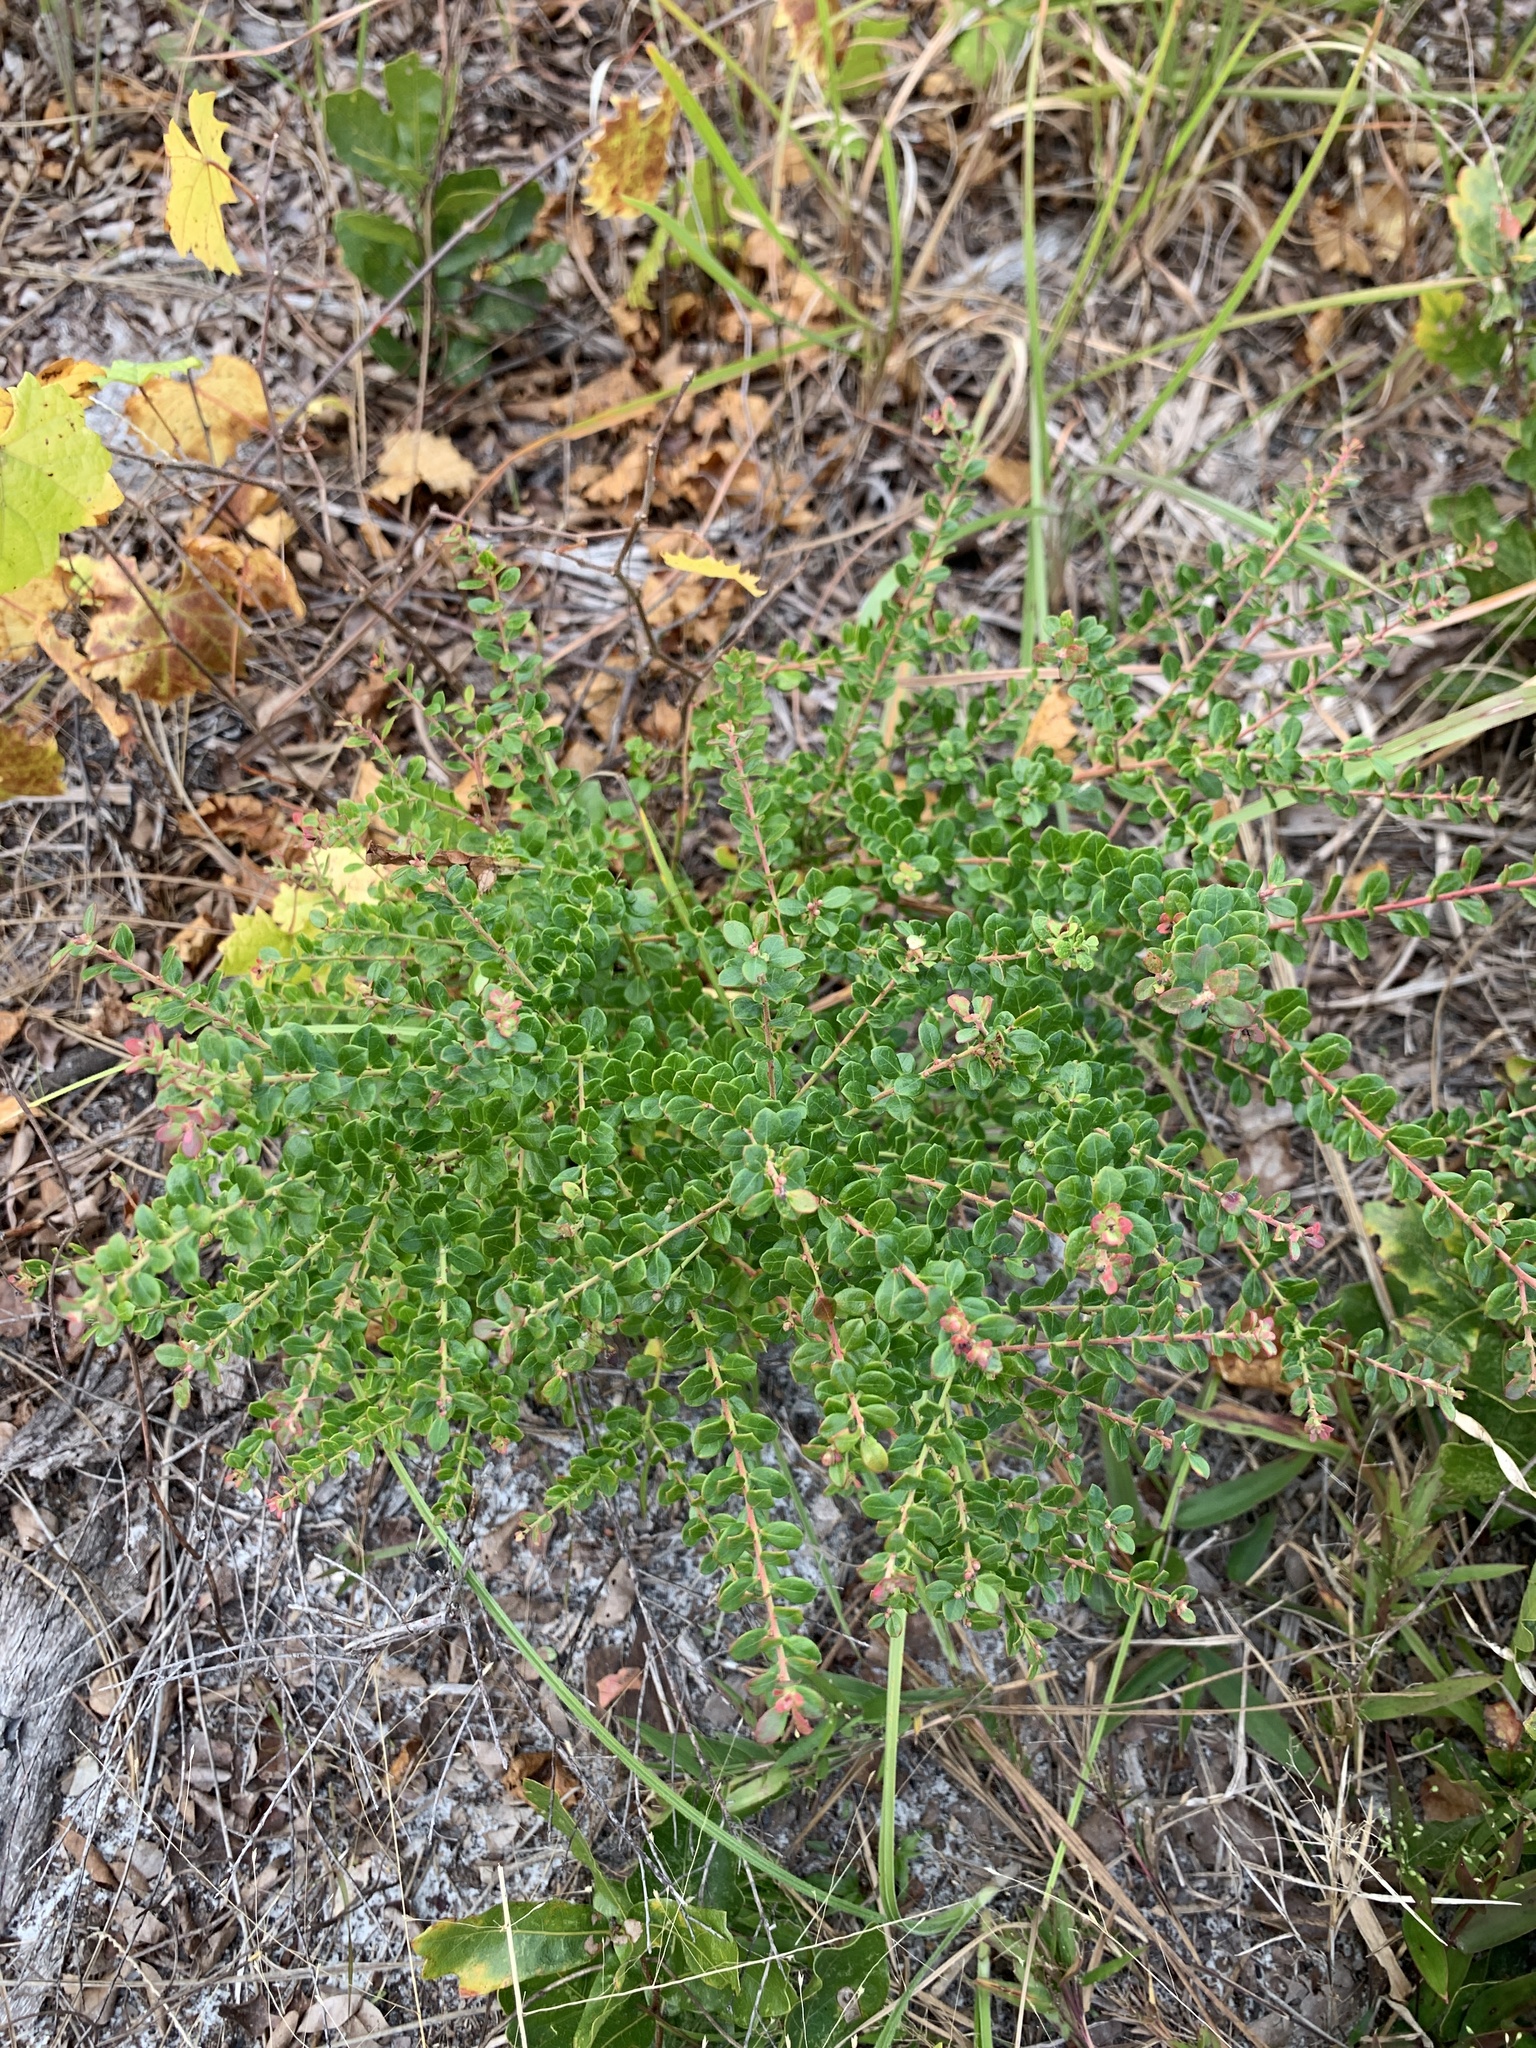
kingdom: Plantae
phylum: Tracheophyta
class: Magnoliopsida
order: Ericales
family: Ericaceae
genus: Vaccinium
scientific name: Vaccinium myrsinites
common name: Evergreen blueberry
